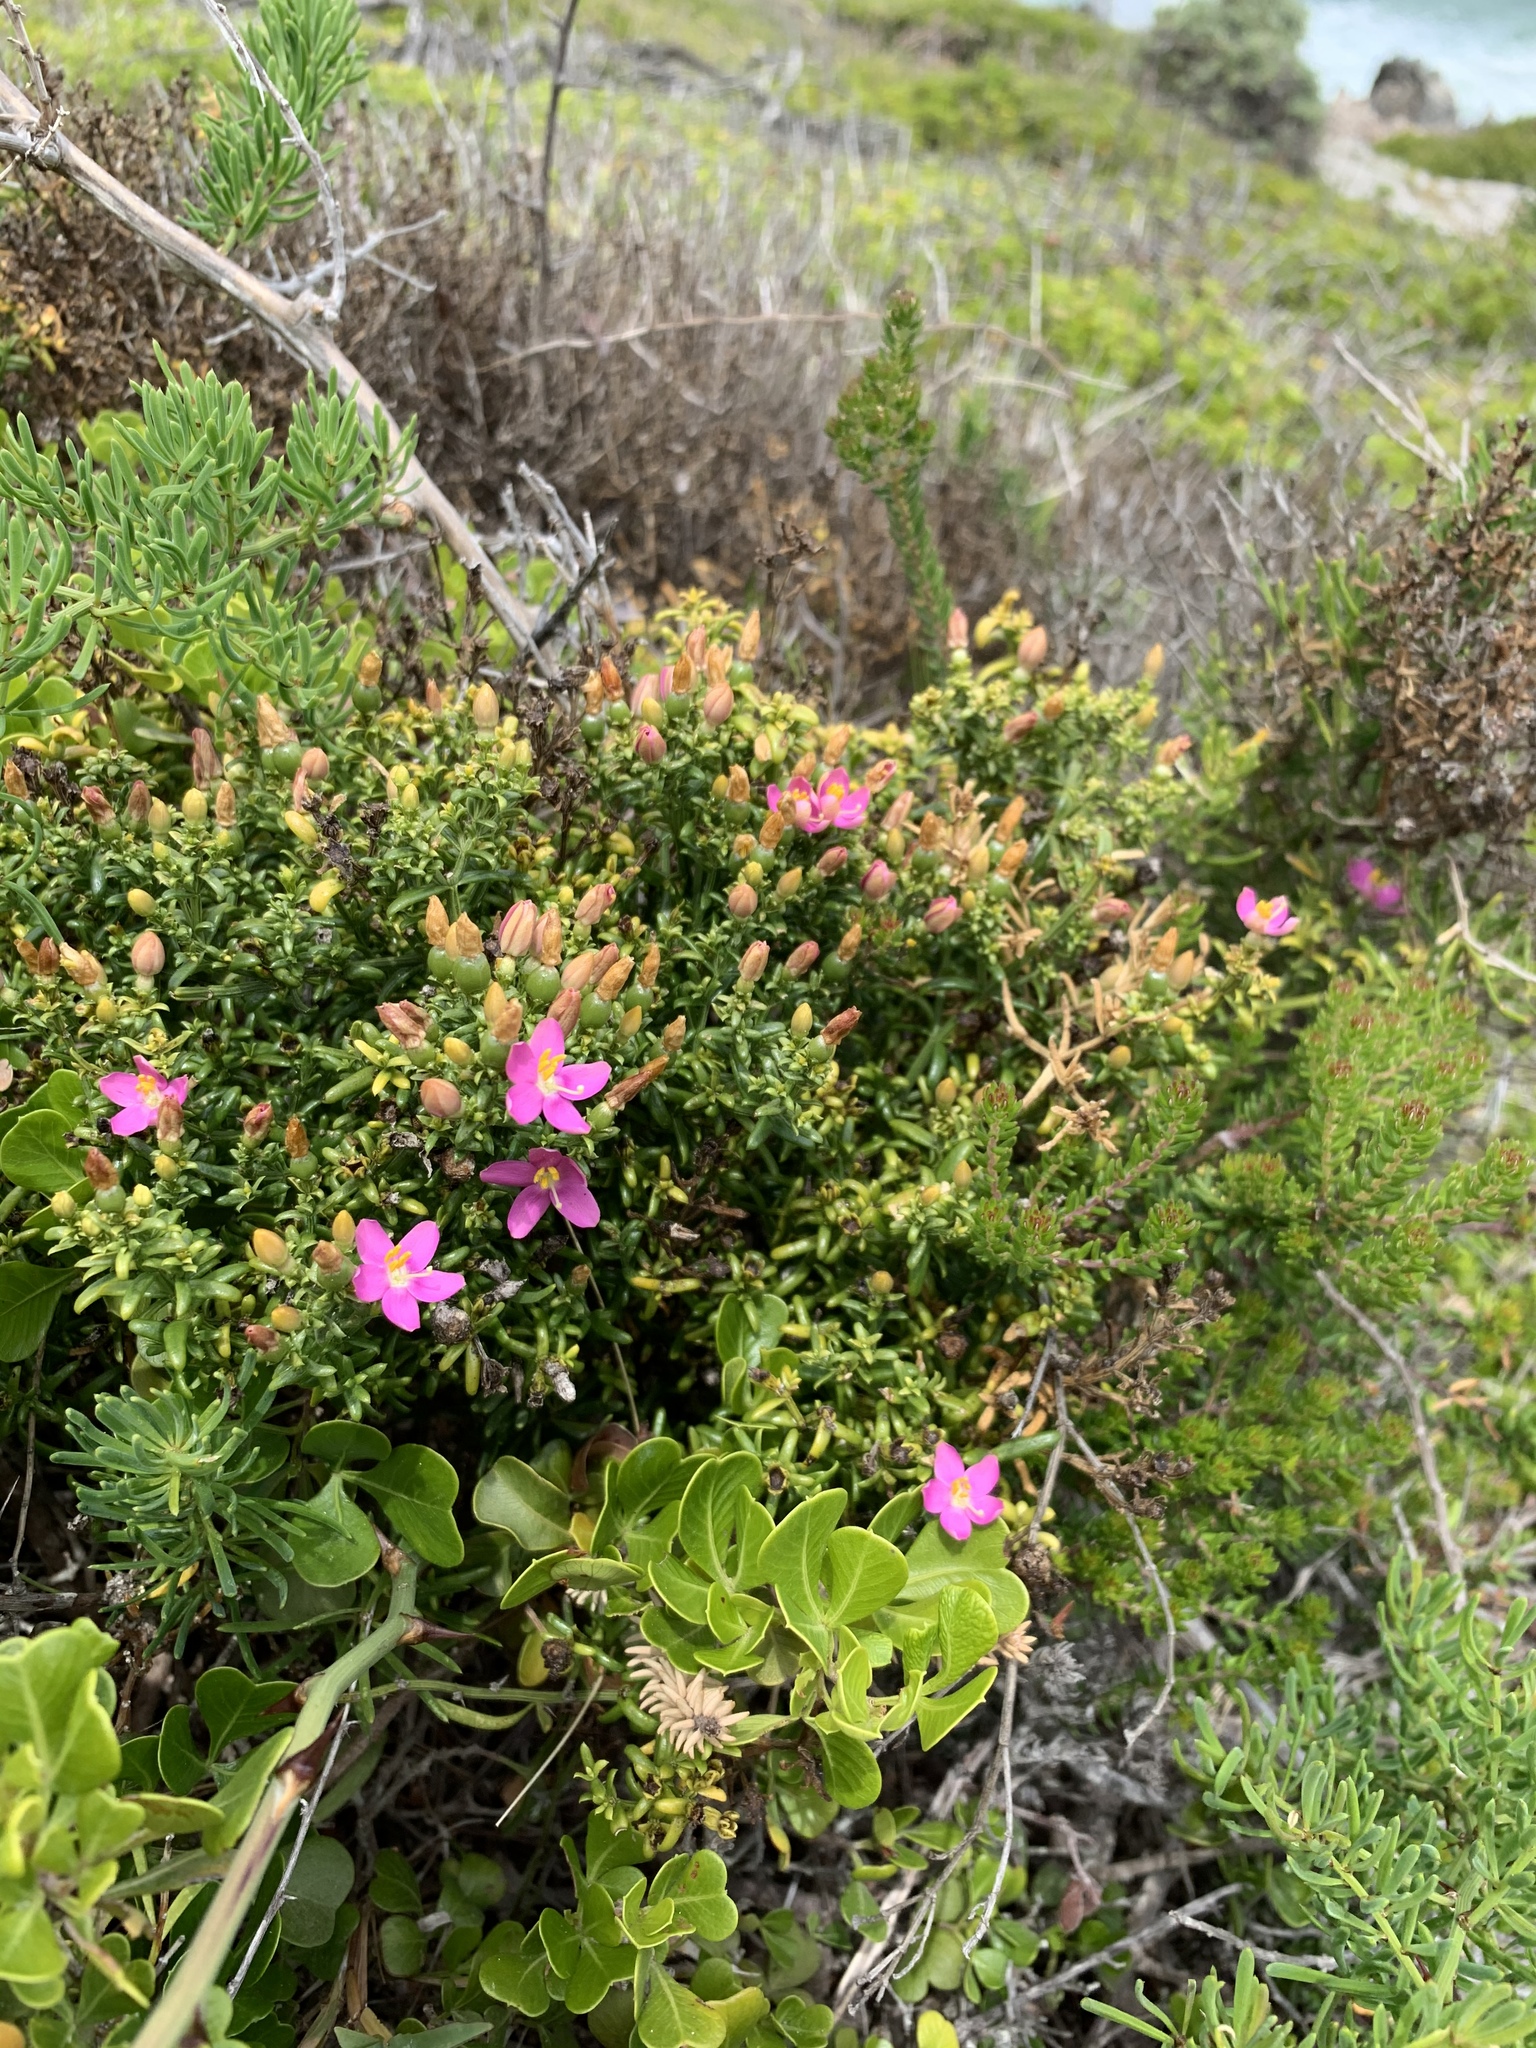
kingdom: Plantae
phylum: Tracheophyta
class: Magnoliopsida
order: Gentianales
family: Gentianaceae
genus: Chironia
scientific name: Chironia baccifera
